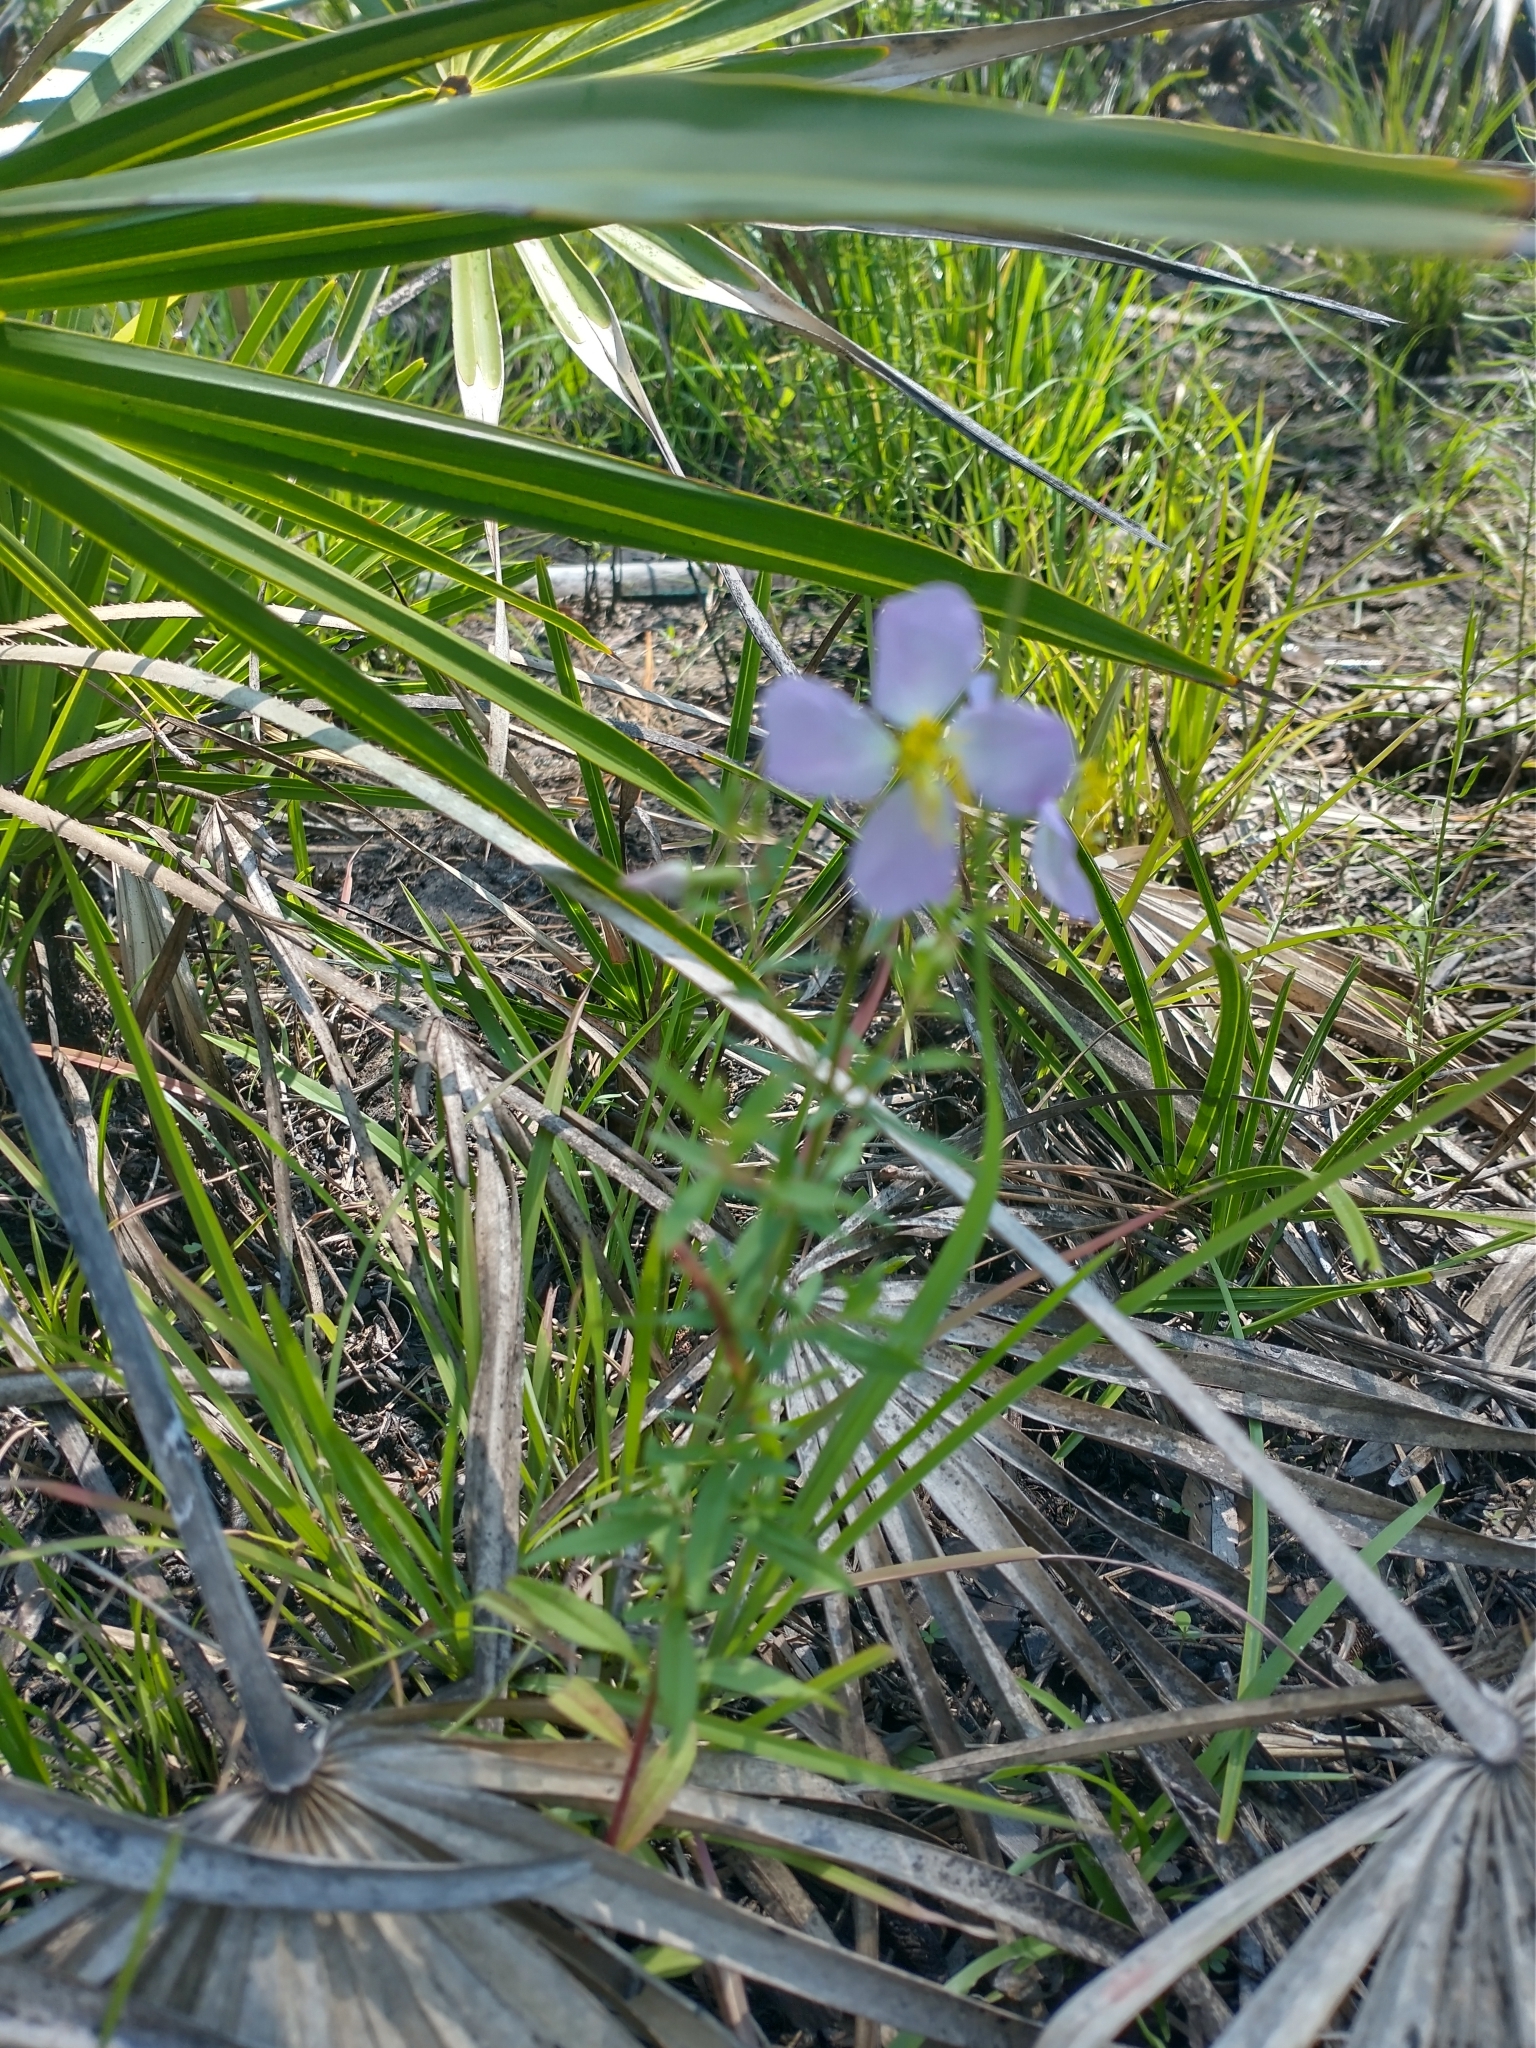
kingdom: Plantae
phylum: Tracheophyta
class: Magnoliopsida
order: Myrtales
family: Melastomataceae
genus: Rhexia
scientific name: Rhexia mariana
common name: Dull meadow-pitcher
